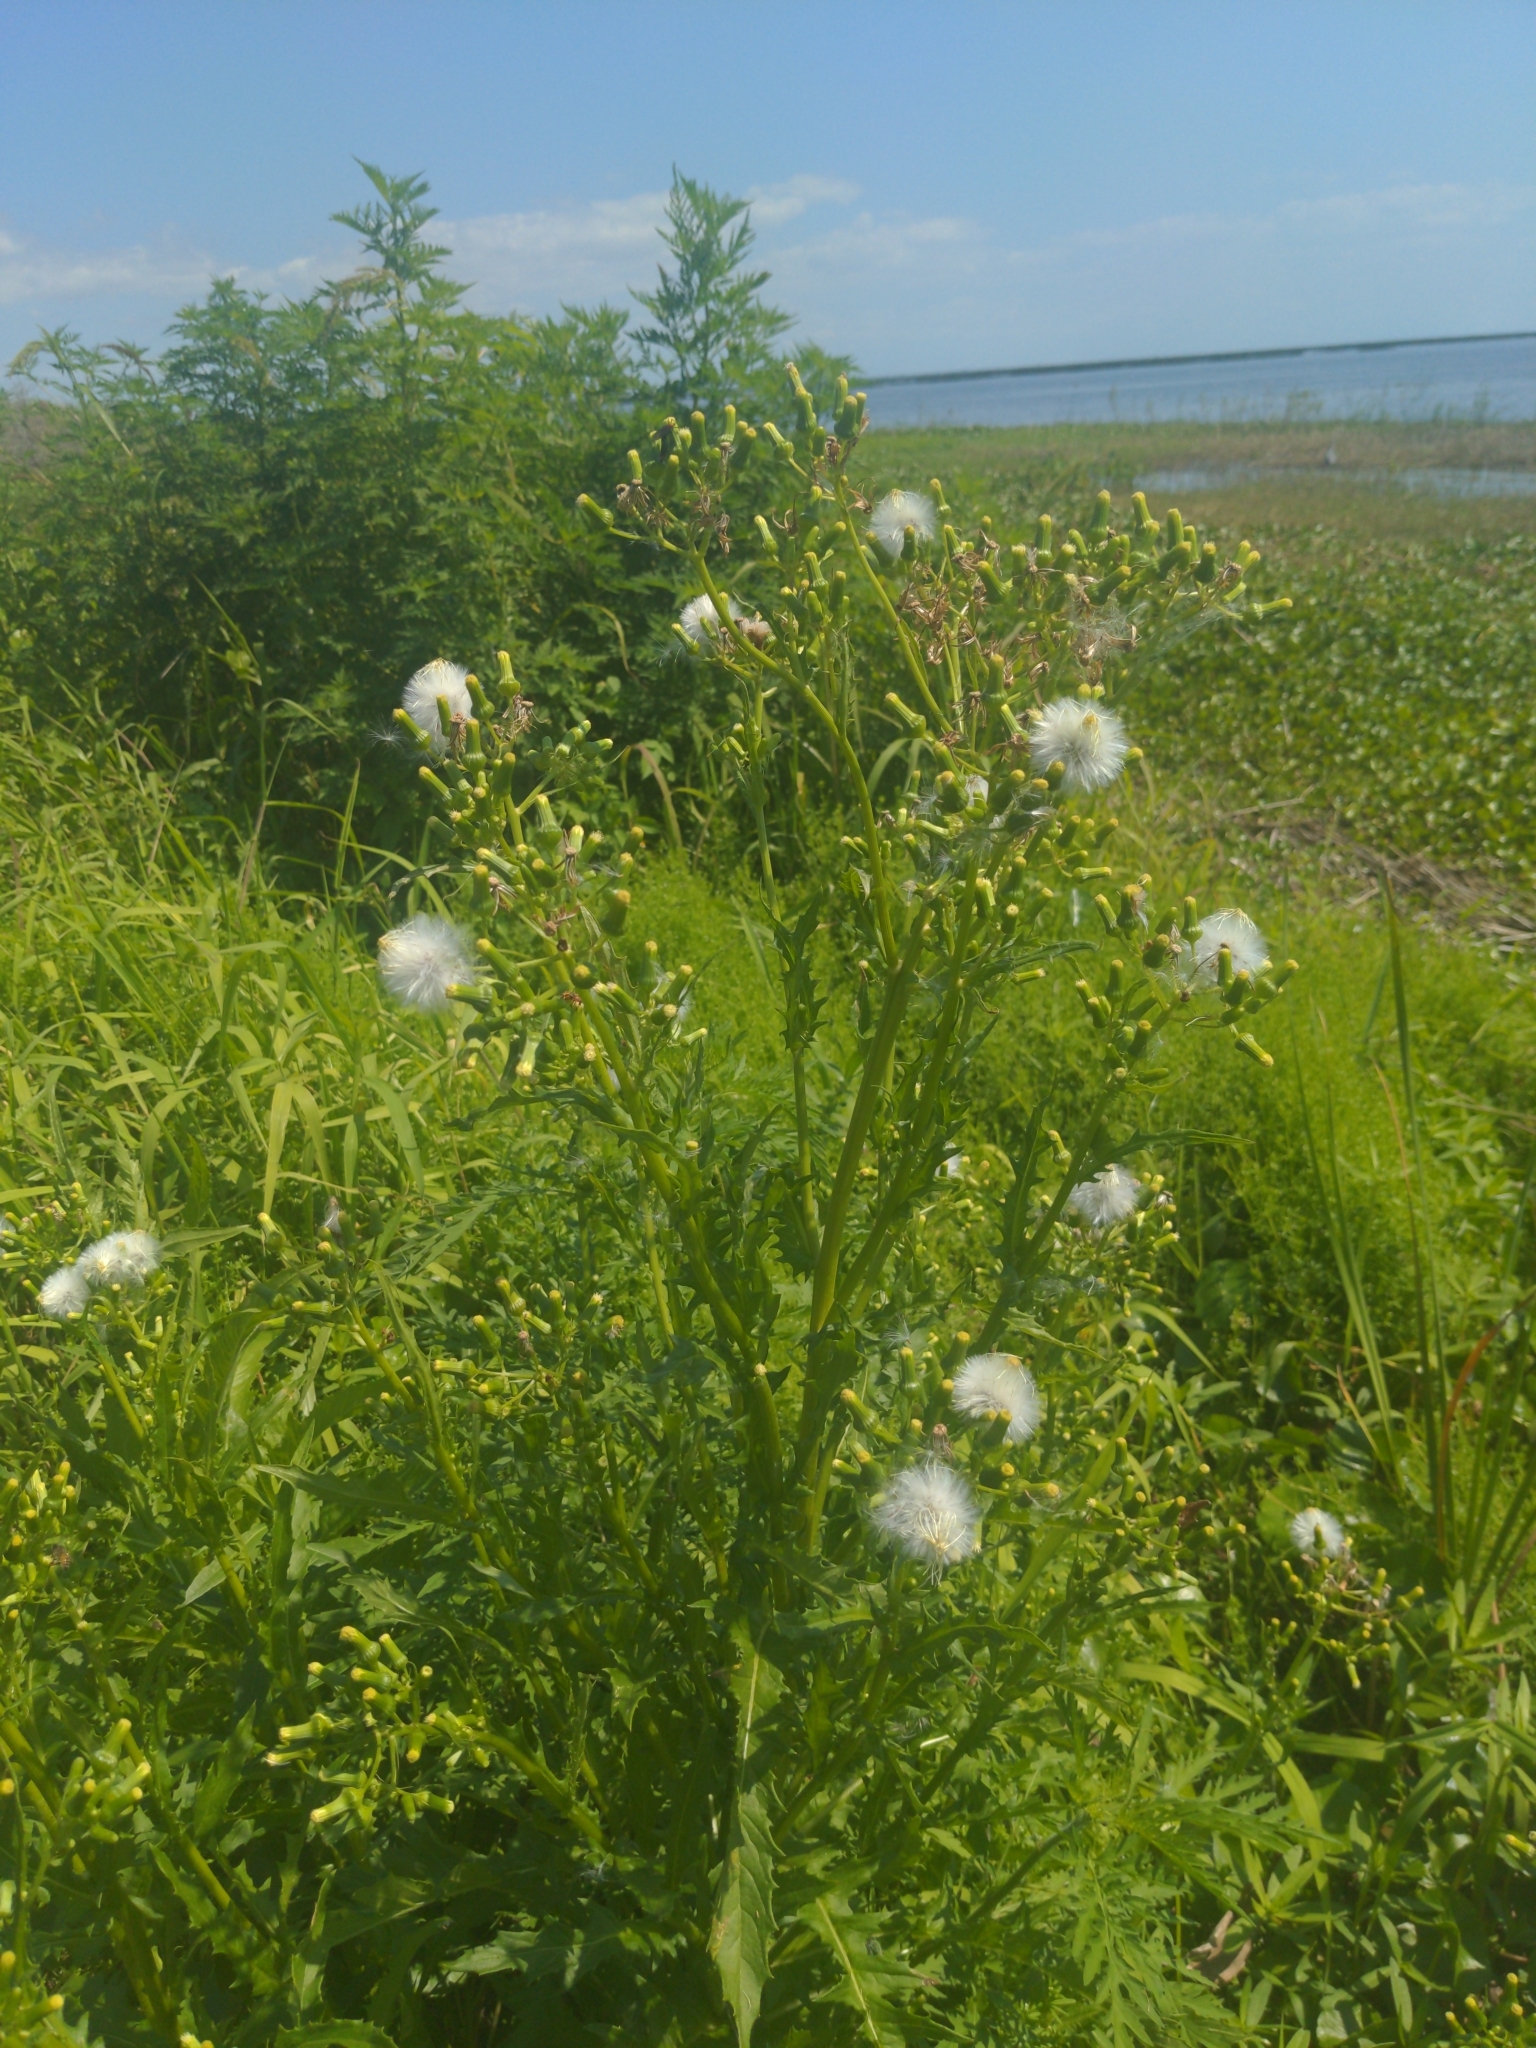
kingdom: Plantae
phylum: Tracheophyta
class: Magnoliopsida
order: Asterales
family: Asteraceae
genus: Erechtites
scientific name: Erechtites hieraciifolius
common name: American burnweed
